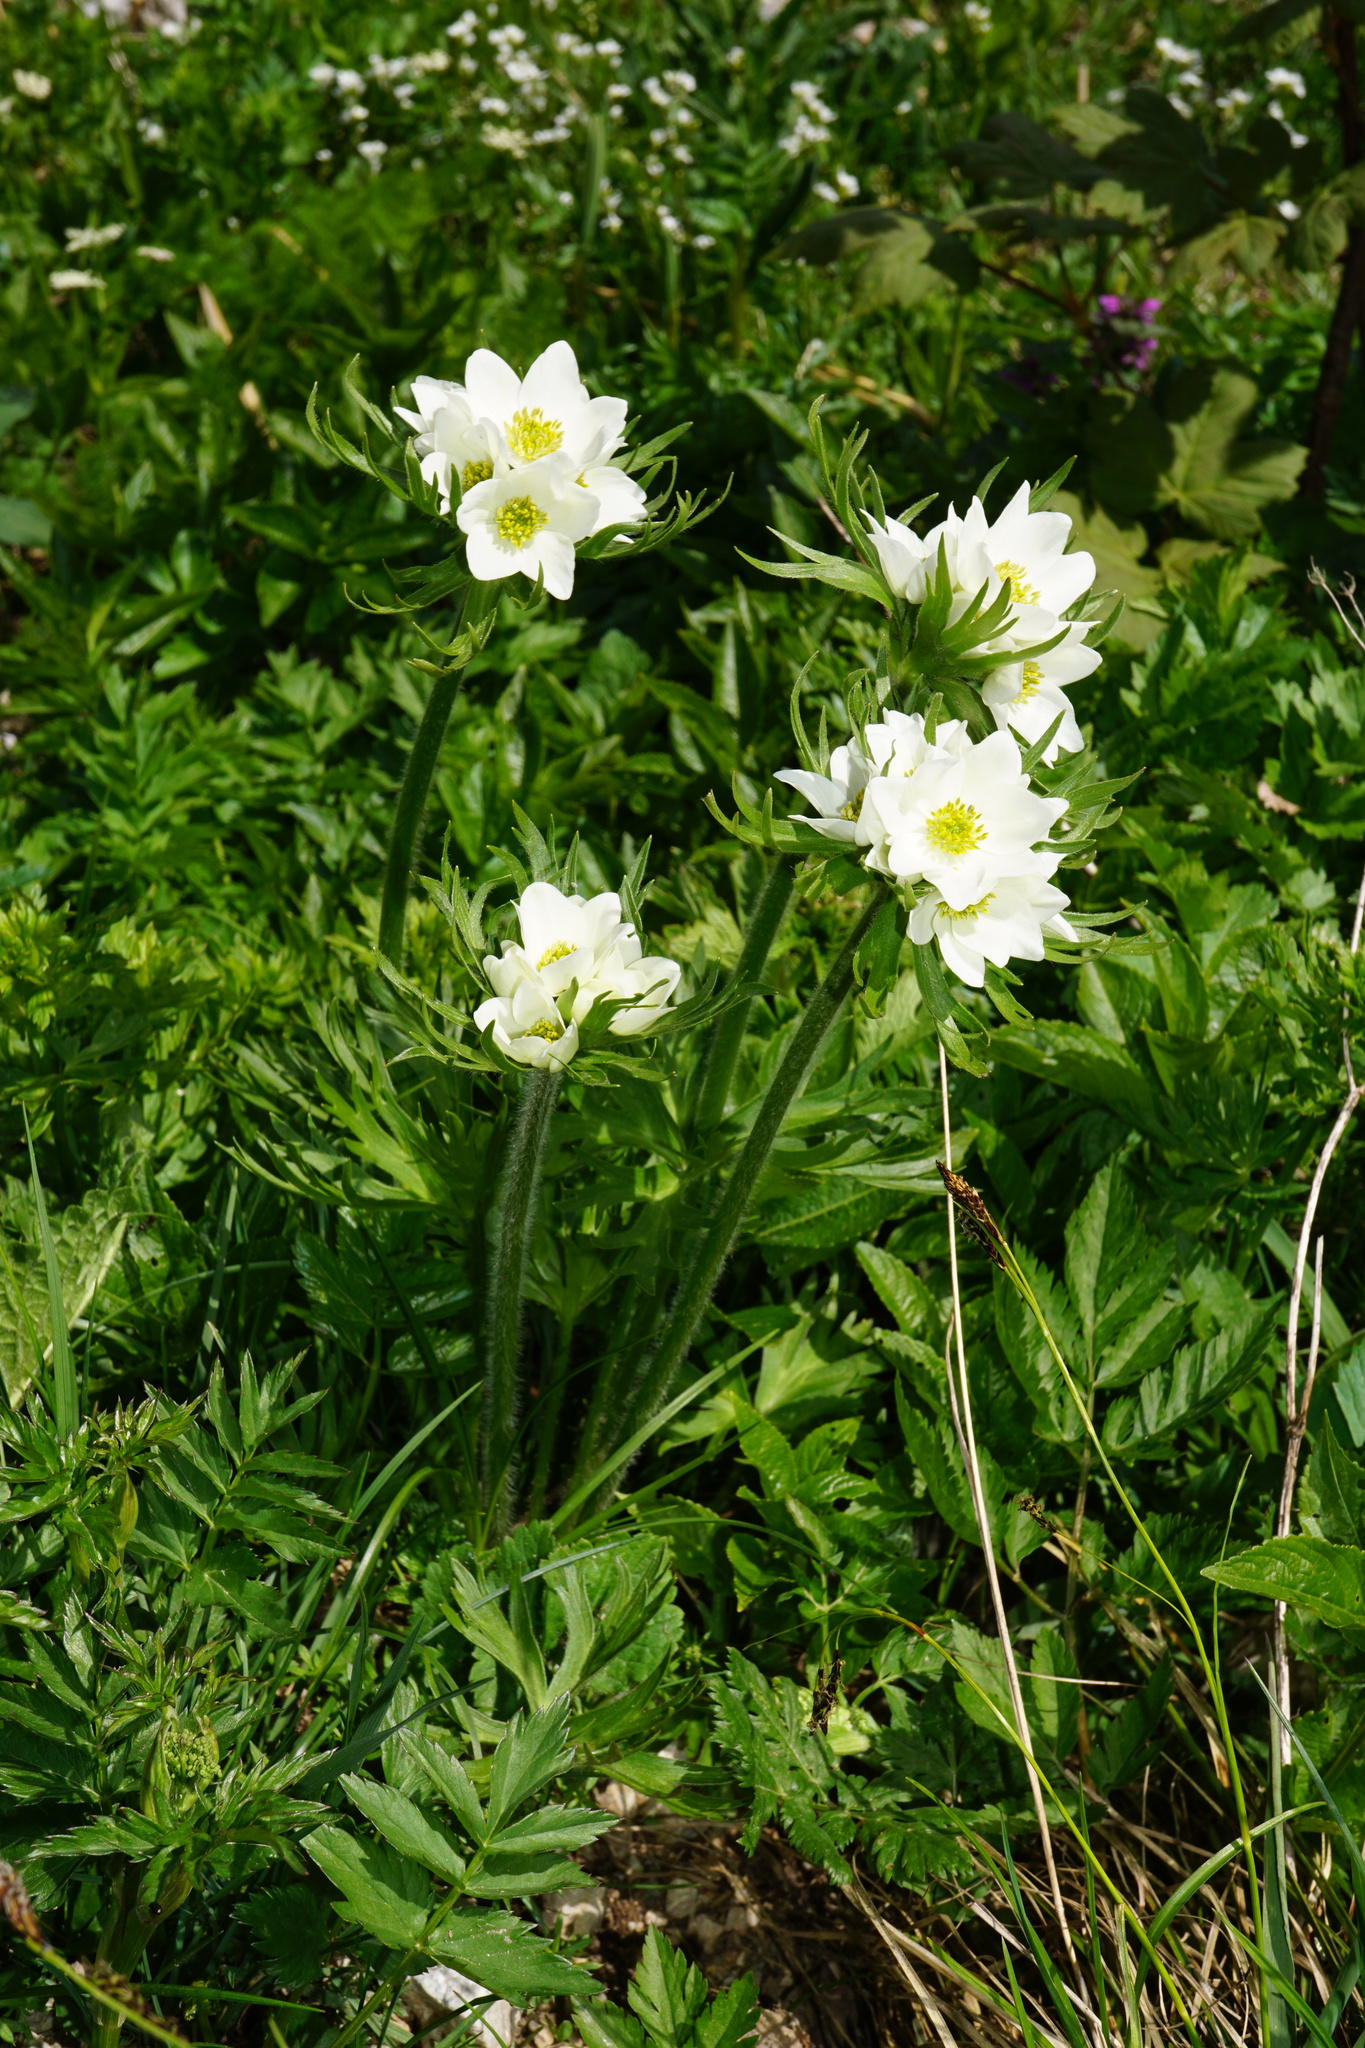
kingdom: Plantae
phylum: Tracheophyta
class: Magnoliopsida
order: Ranunculales
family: Ranunculaceae
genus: Anemonastrum
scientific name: Anemonastrum narcissiflorum
